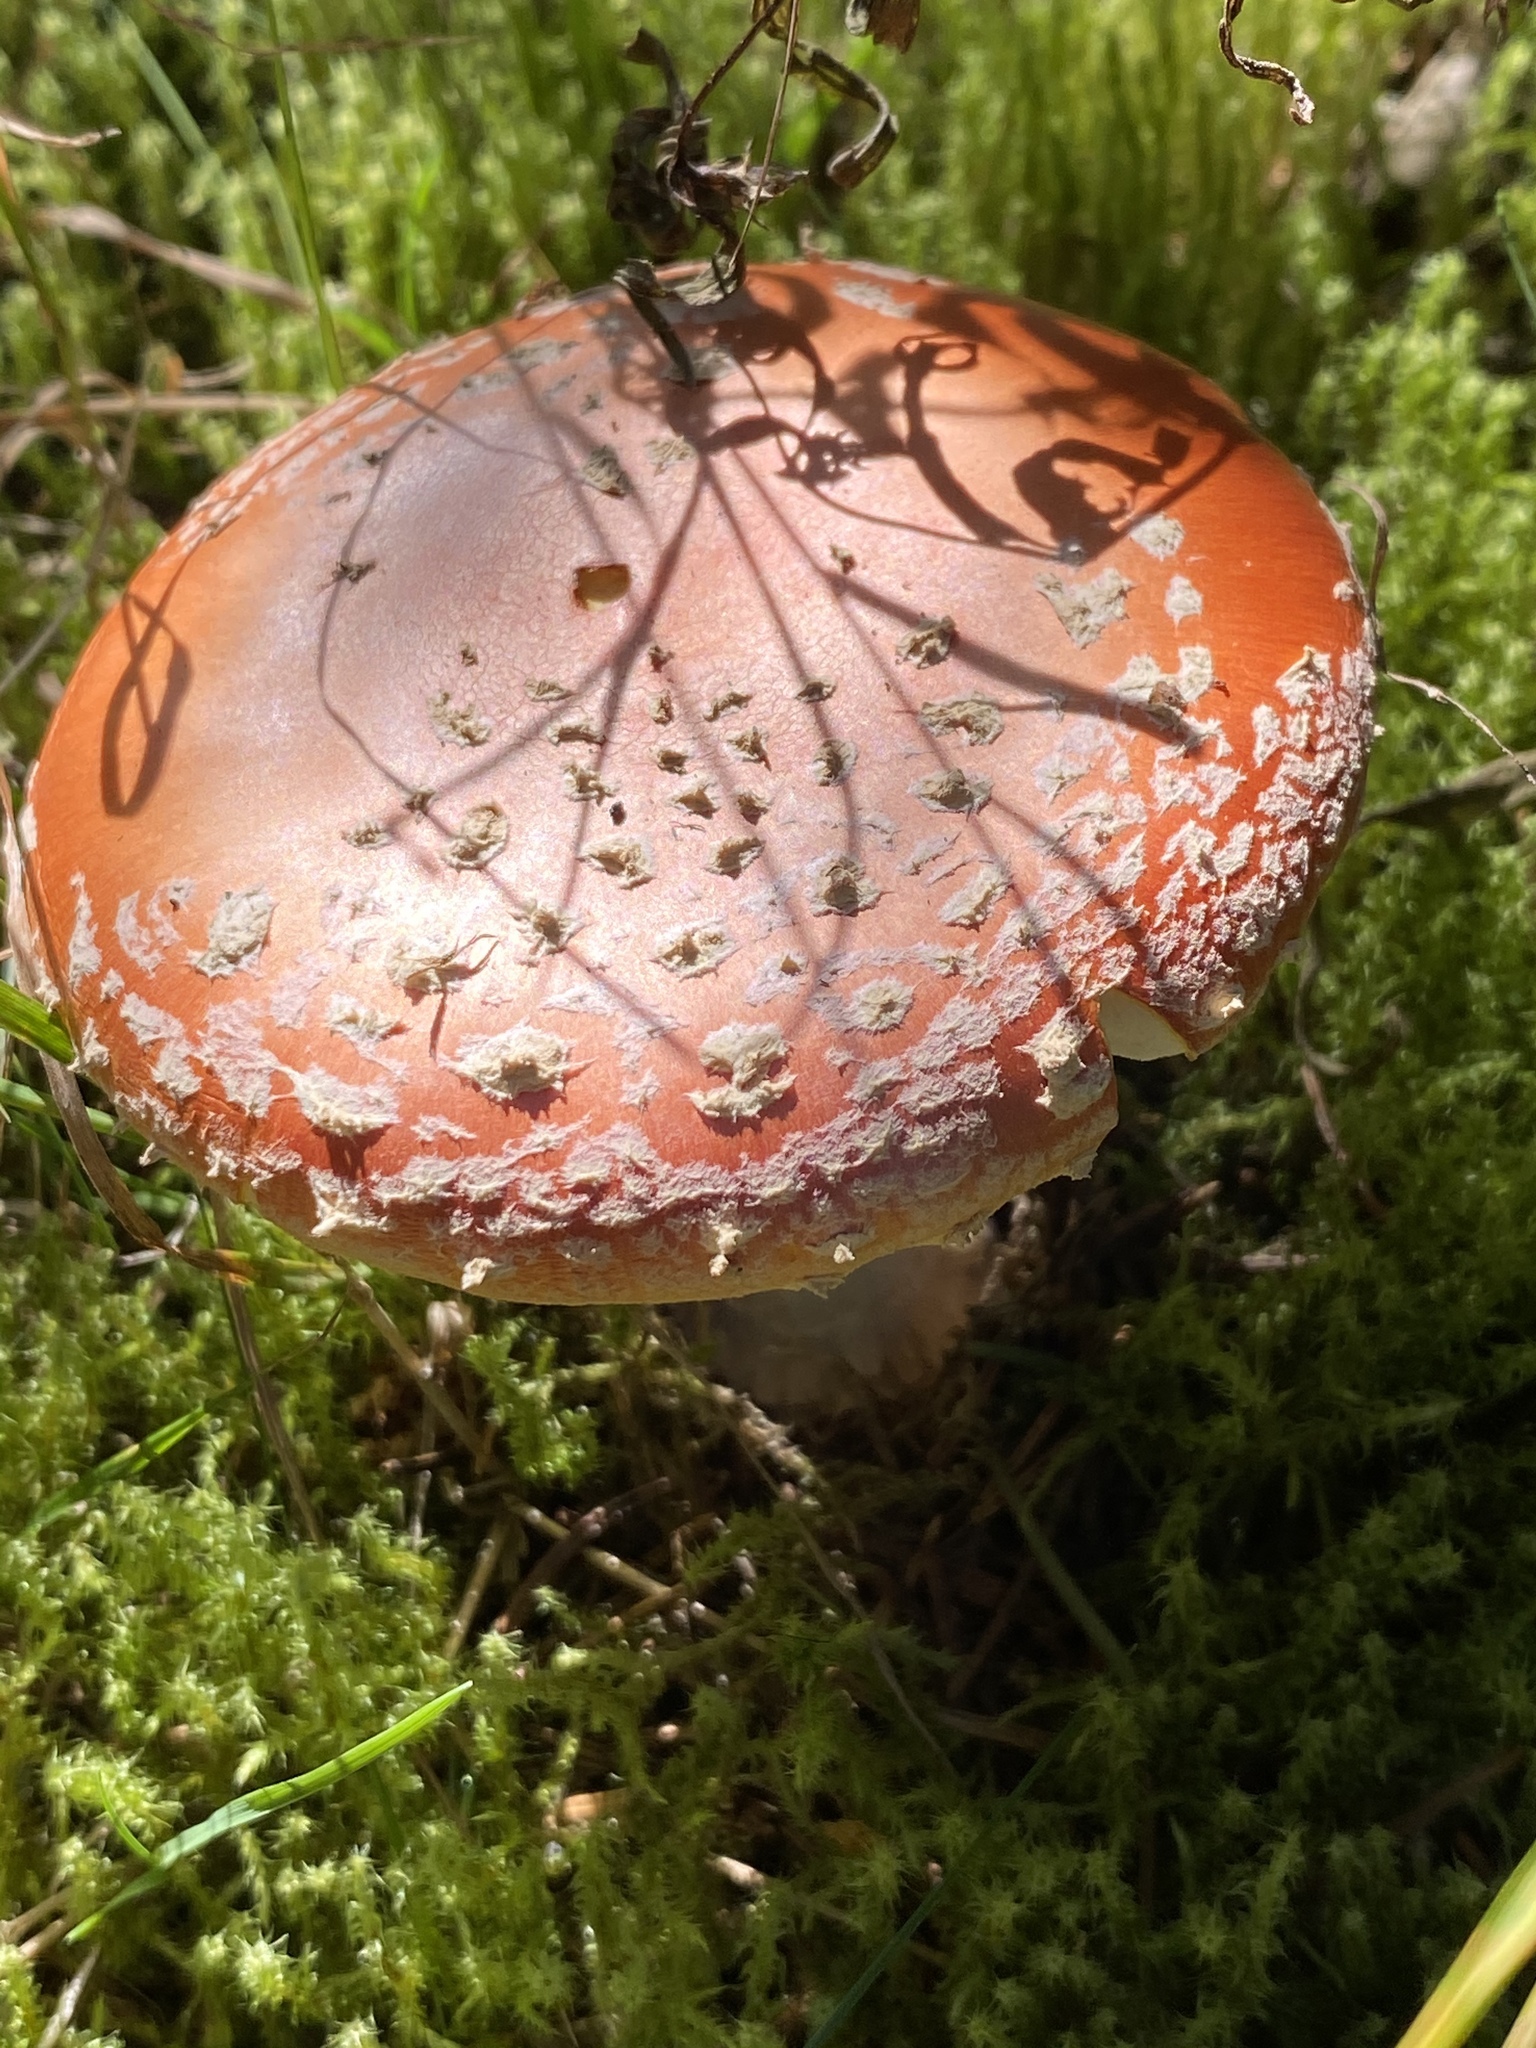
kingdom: Fungi
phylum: Basidiomycota
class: Agaricomycetes
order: Agaricales
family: Amanitaceae
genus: Amanita
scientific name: Amanita muscaria
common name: Fly agaric
